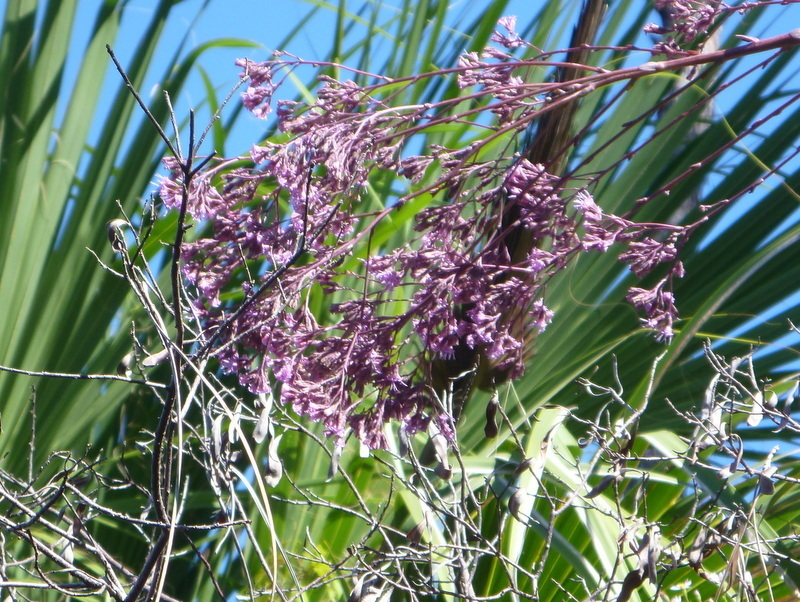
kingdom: Plantae
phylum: Tracheophyta
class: Magnoliopsida
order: Asterales
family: Asteraceae
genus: Vernonia
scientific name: Vernonia gigantea
